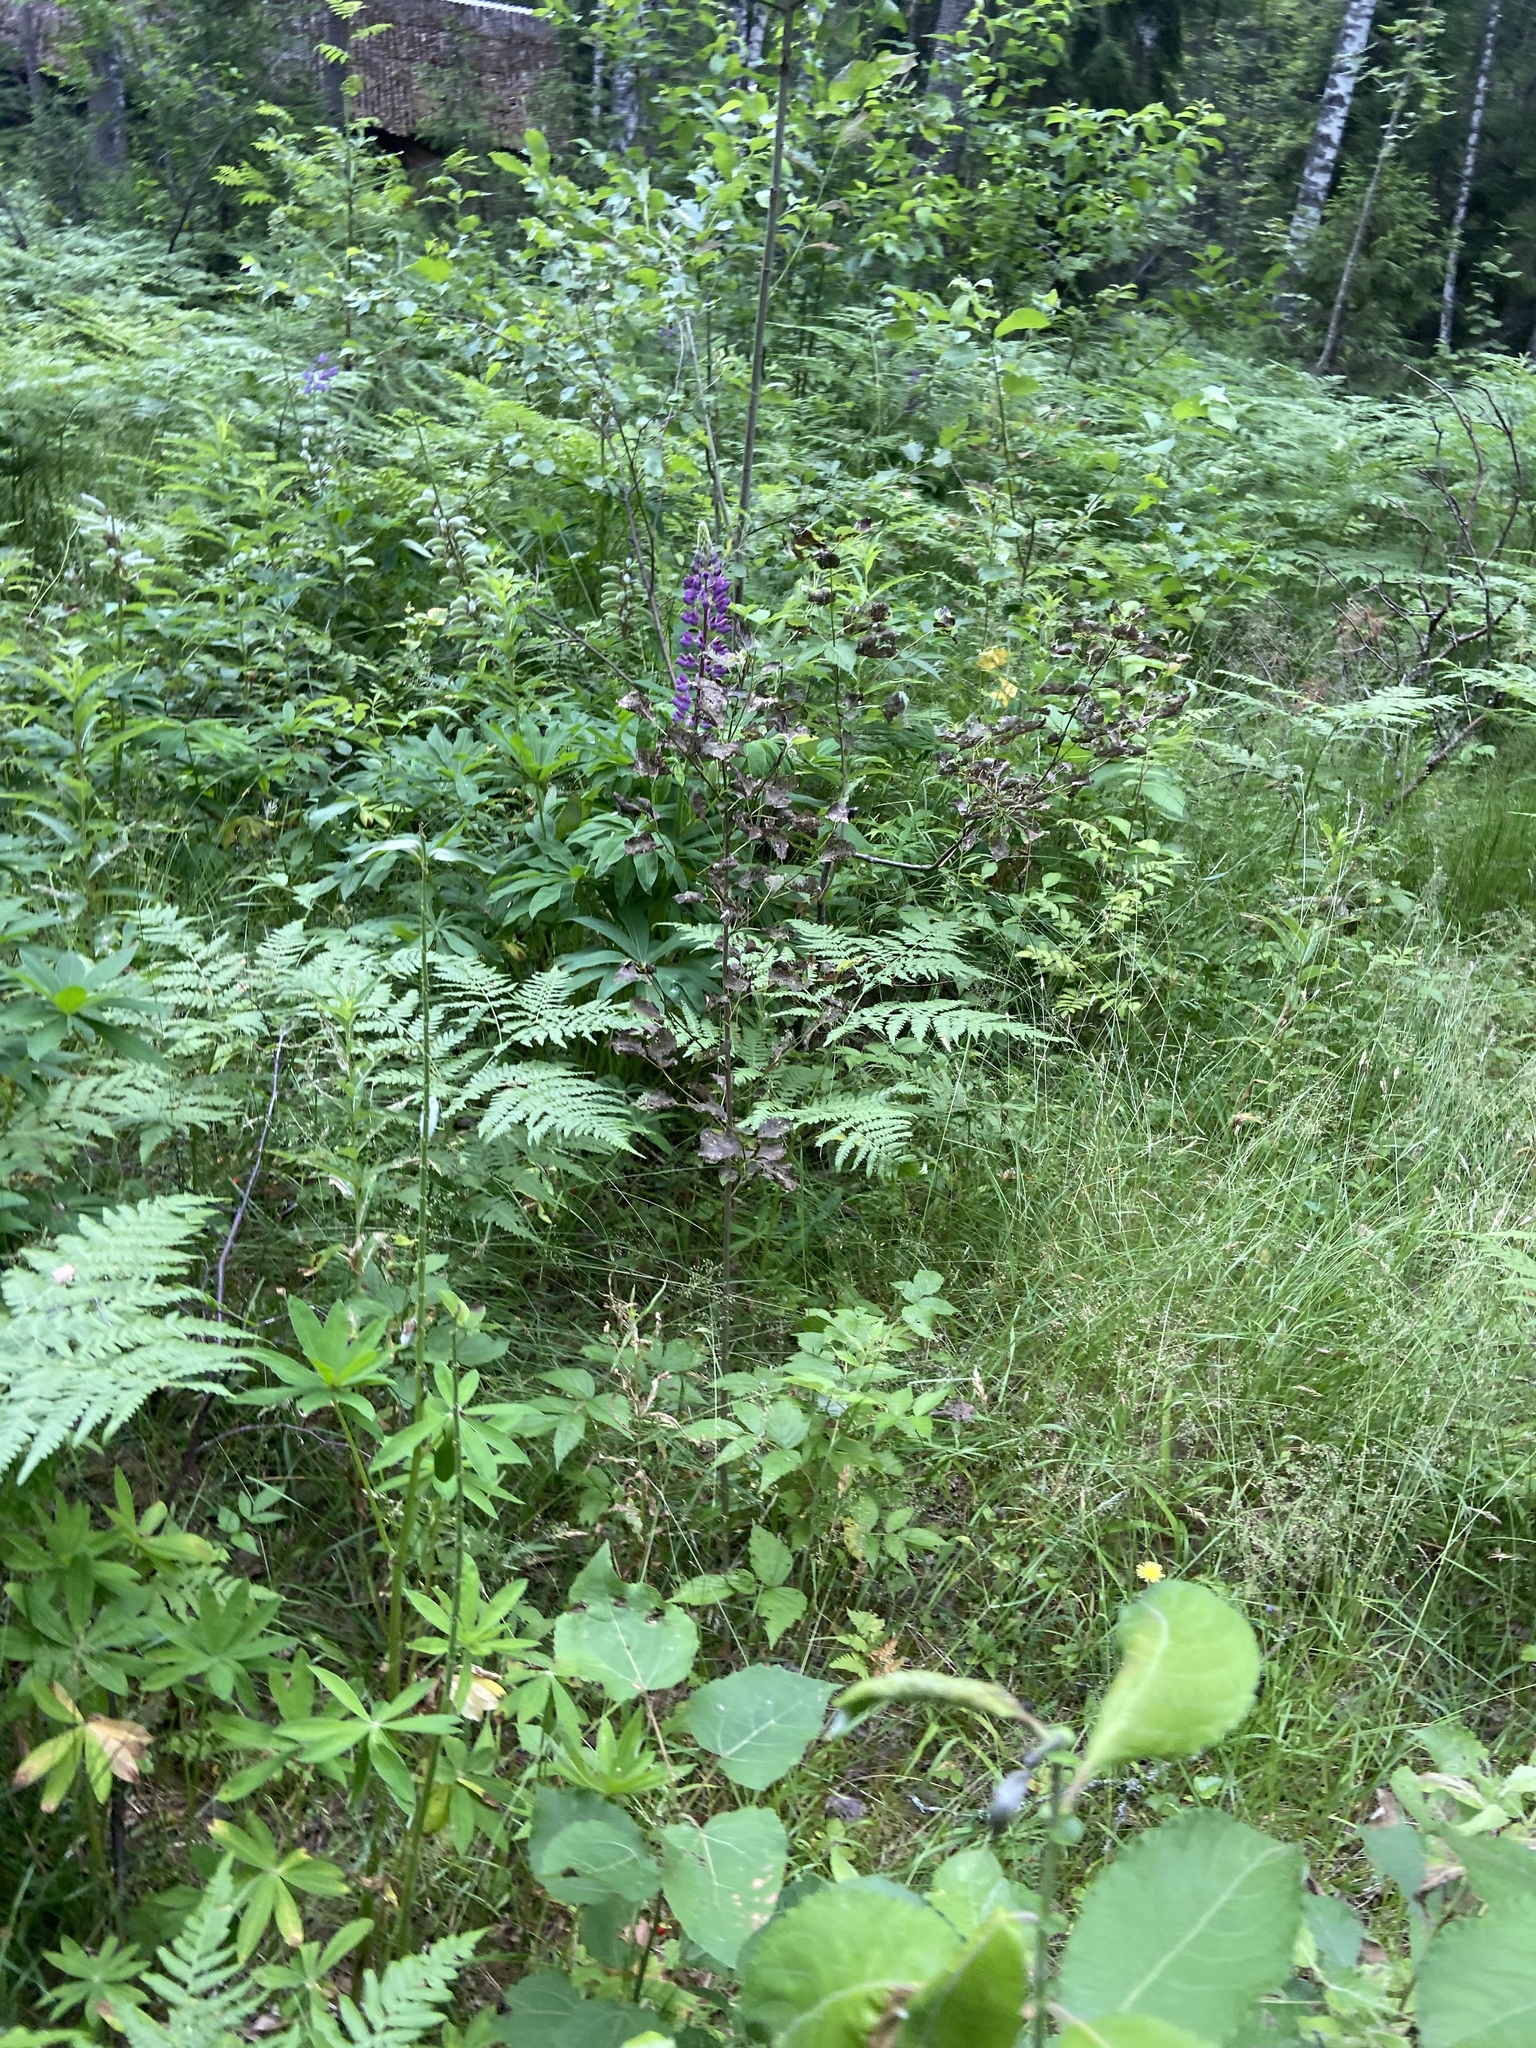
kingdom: Plantae
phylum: Tracheophyta
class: Magnoliopsida
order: Fabales
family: Fabaceae
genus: Lupinus
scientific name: Lupinus polyphyllus
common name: Garden lupin
